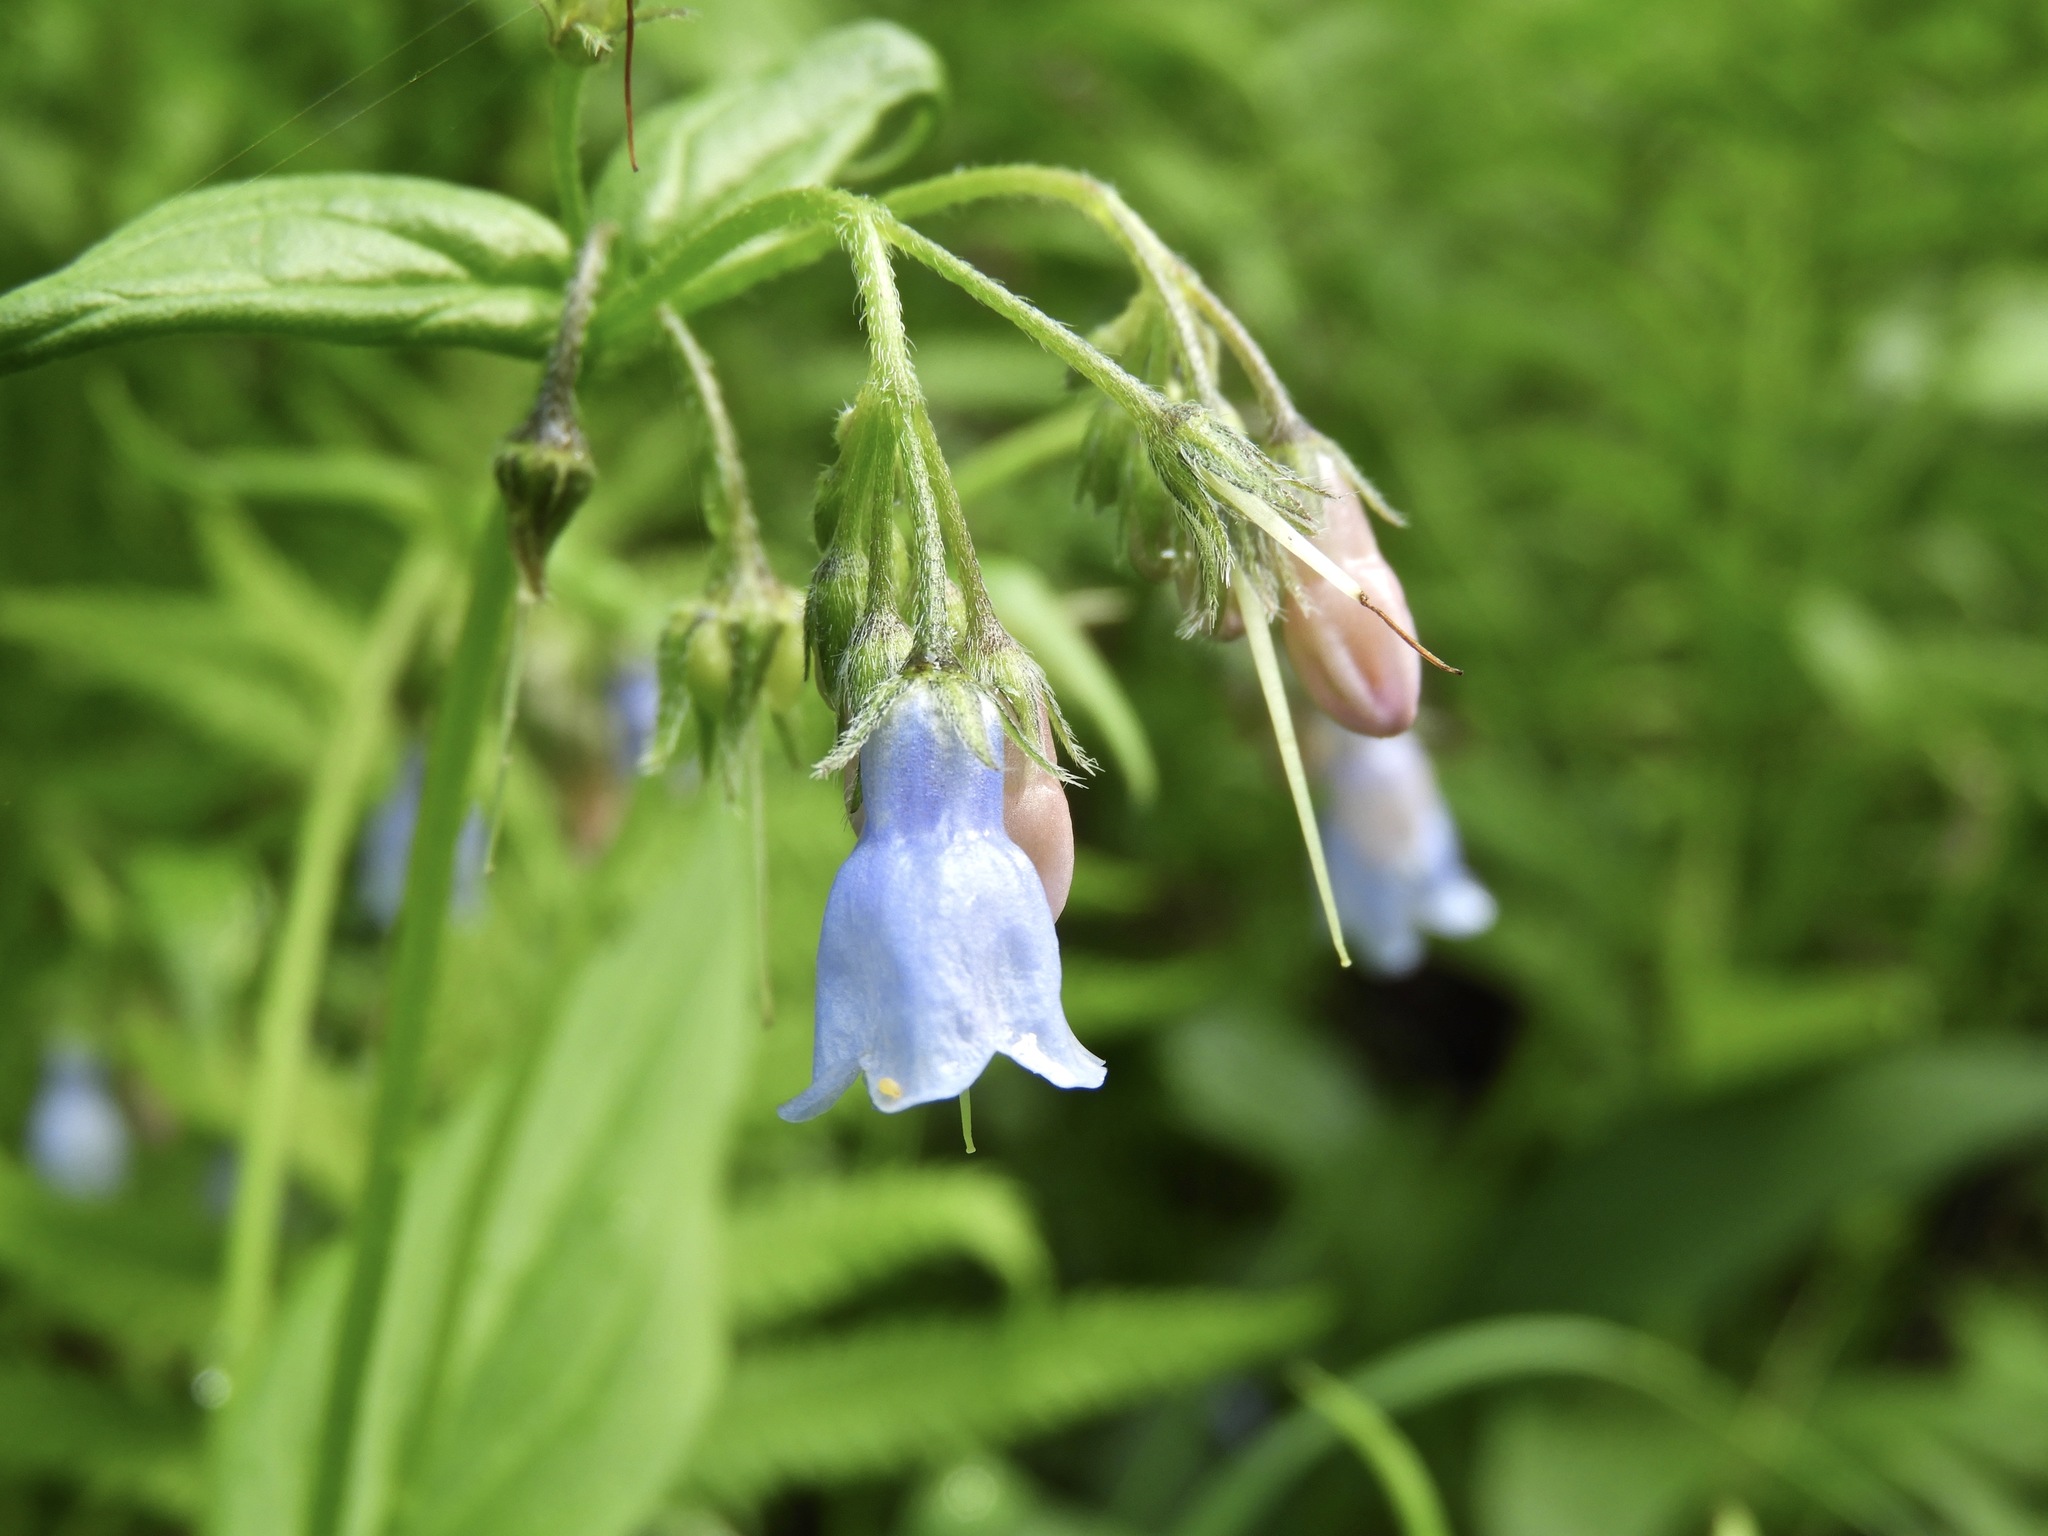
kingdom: Plantae
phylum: Tracheophyta
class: Magnoliopsida
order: Boraginales
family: Boraginaceae
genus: Mertensia
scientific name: Mertensia paniculata
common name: Panicled bluebells
